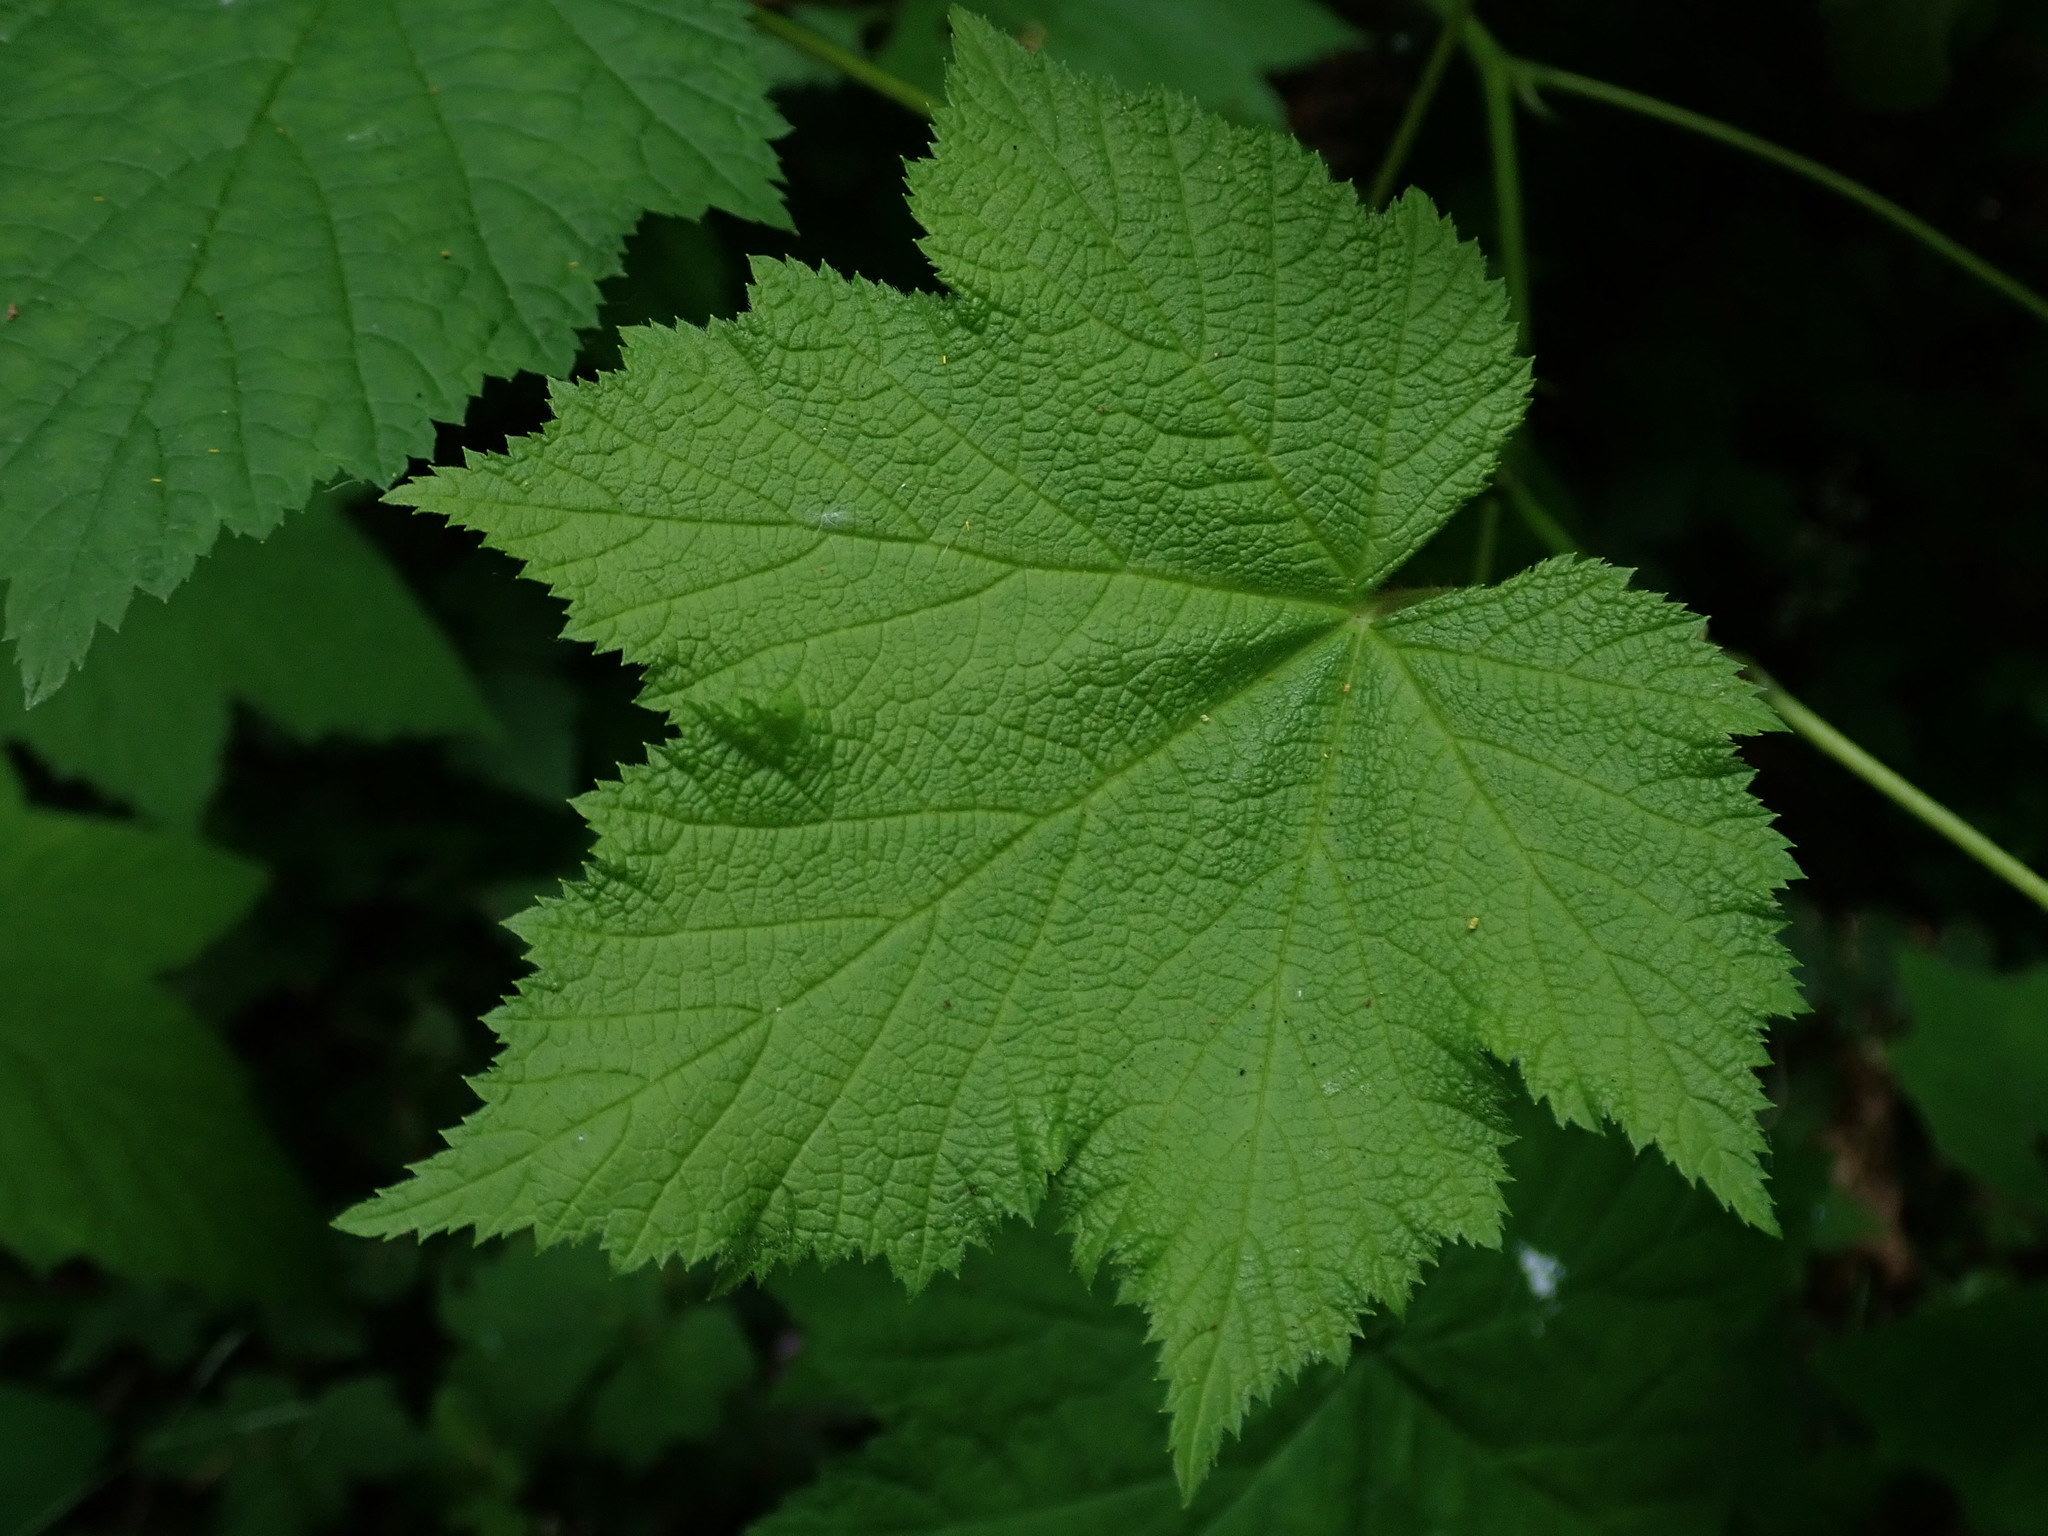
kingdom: Plantae
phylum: Tracheophyta
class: Magnoliopsida
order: Rosales
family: Rosaceae
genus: Rubus
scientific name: Rubus parviflorus
